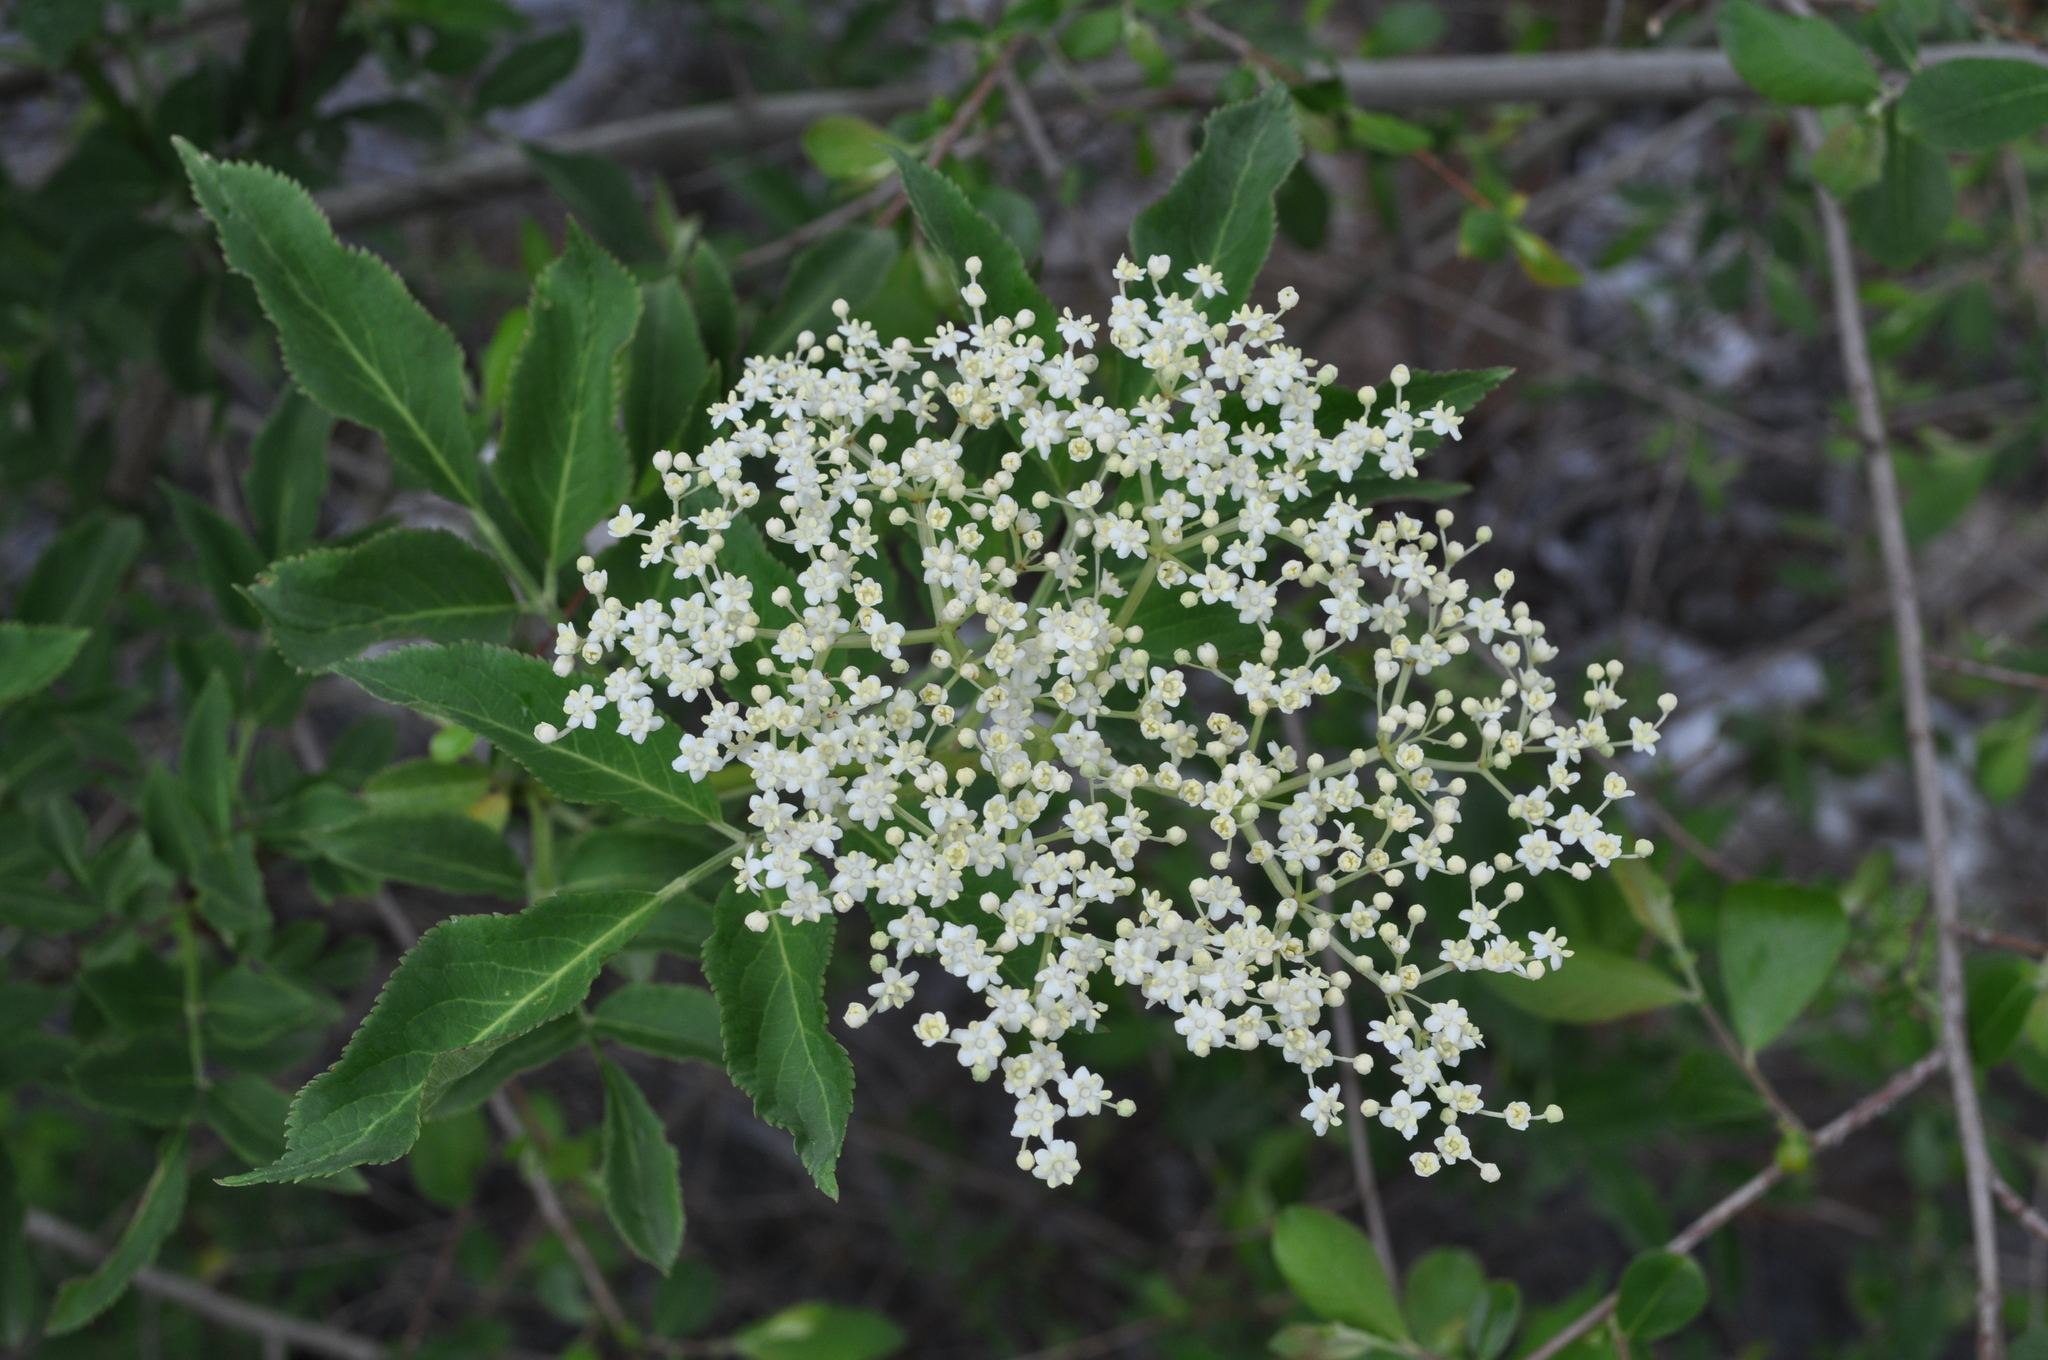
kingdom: Plantae
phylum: Tracheophyta
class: Magnoliopsida
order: Dipsacales
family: Viburnaceae
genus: Sambucus
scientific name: Sambucus nigra
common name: Elder
